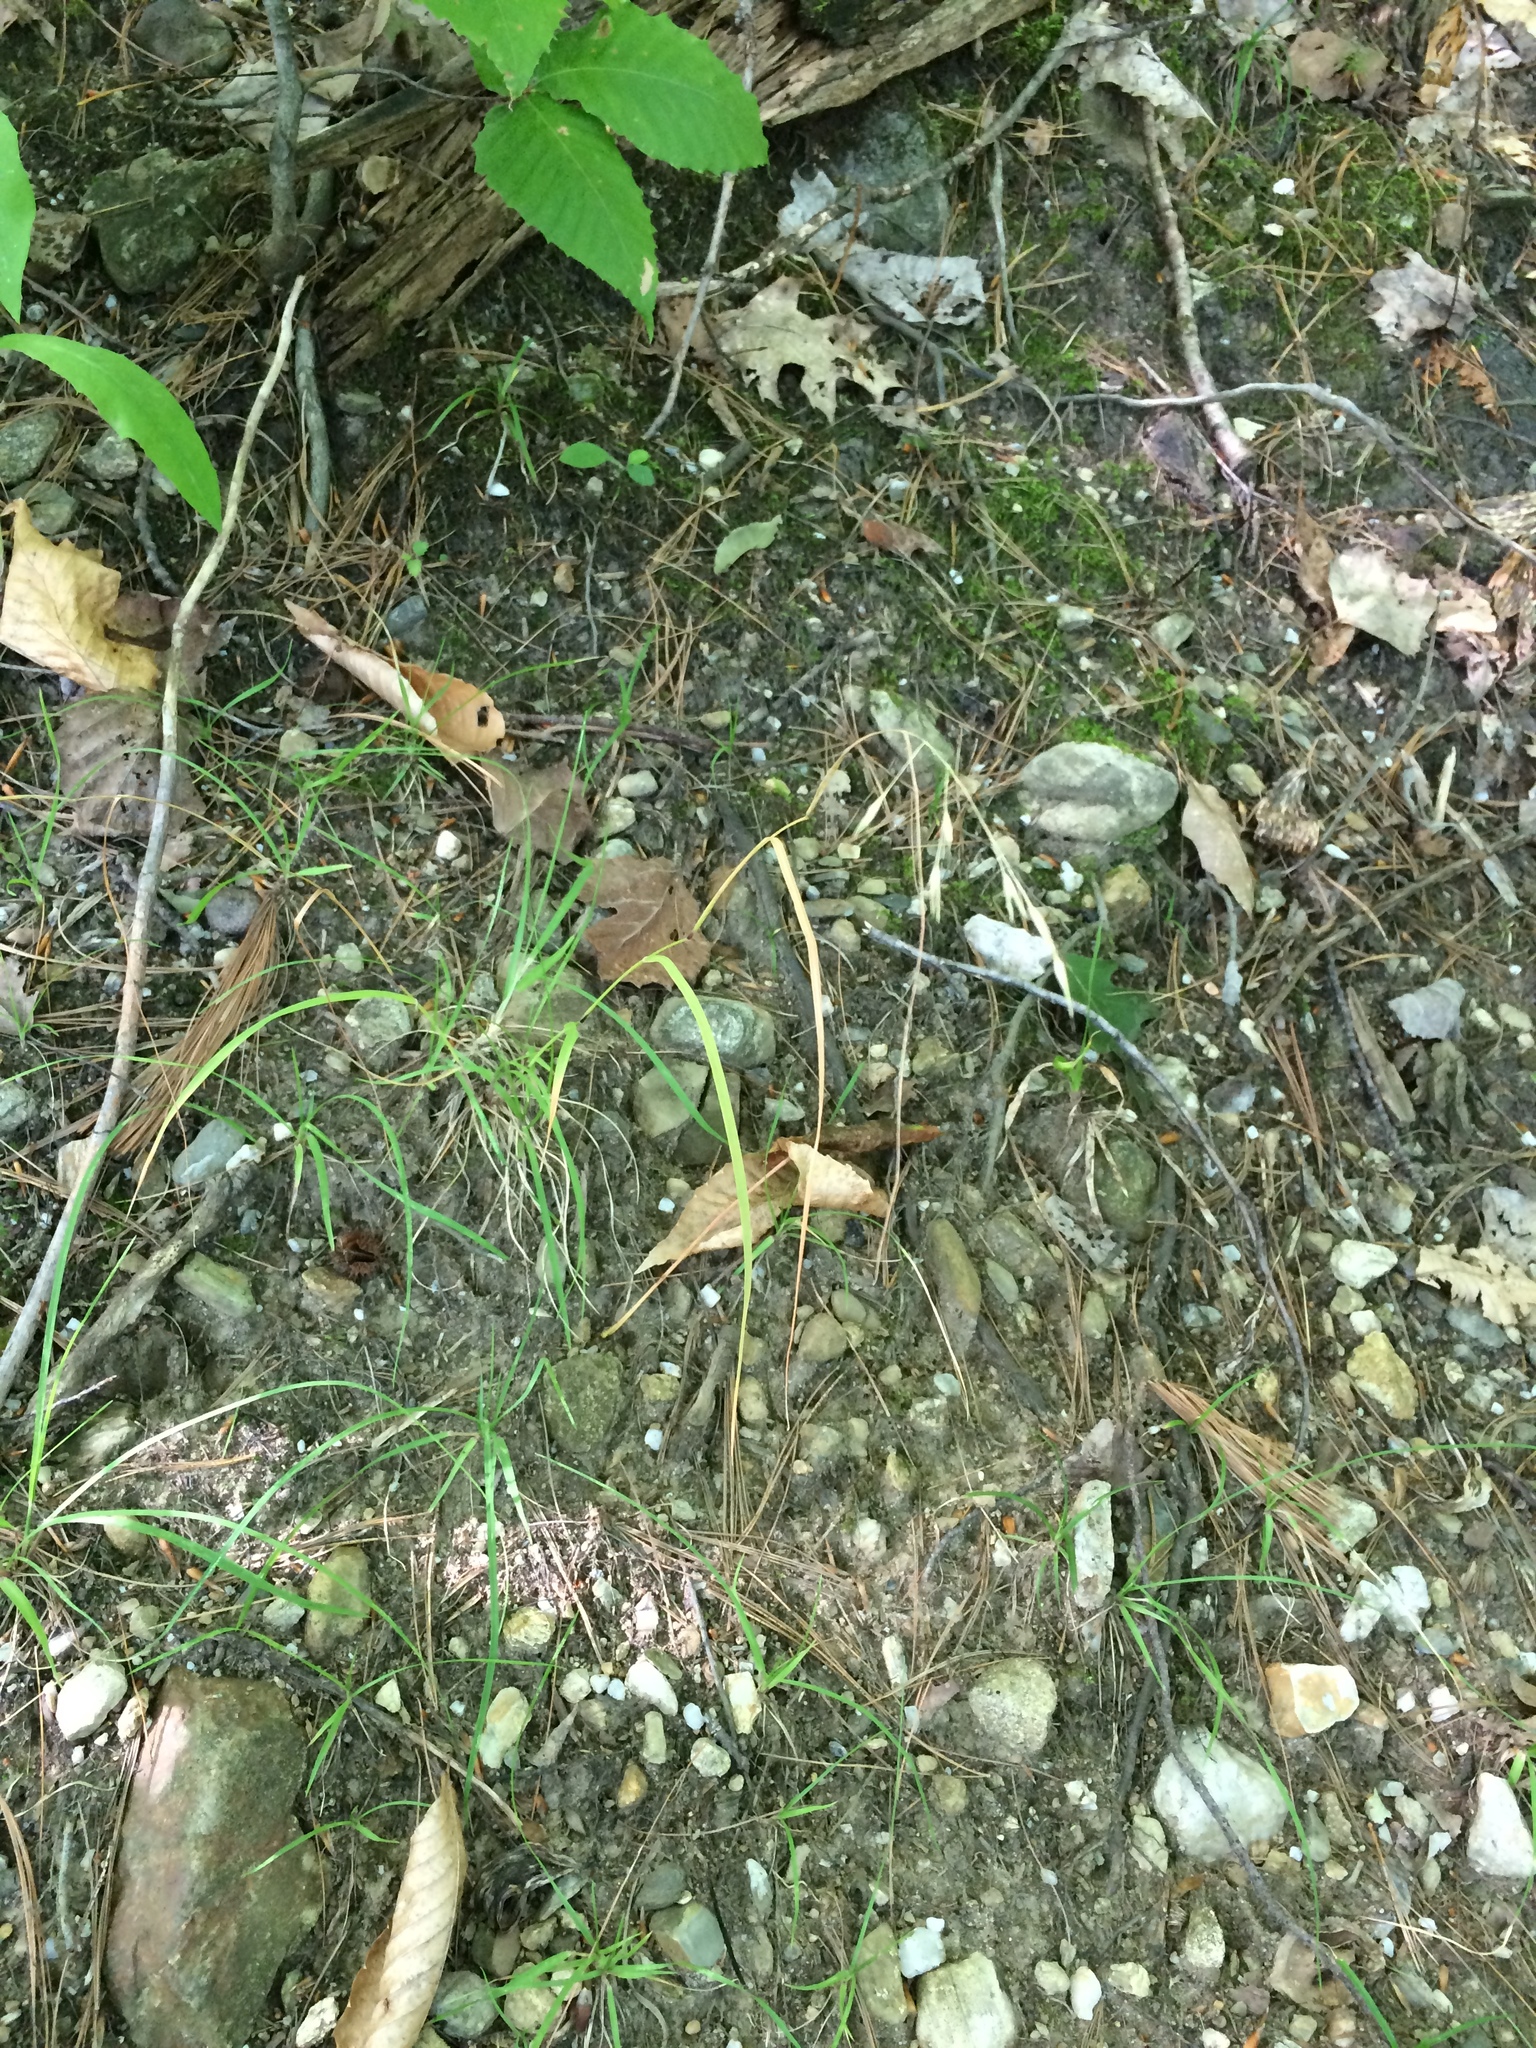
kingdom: Plantae
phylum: Tracheophyta
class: Liliopsida
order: Poales
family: Poaceae
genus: Danthonia
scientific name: Danthonia compressa
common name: Flat-stem oat grass
